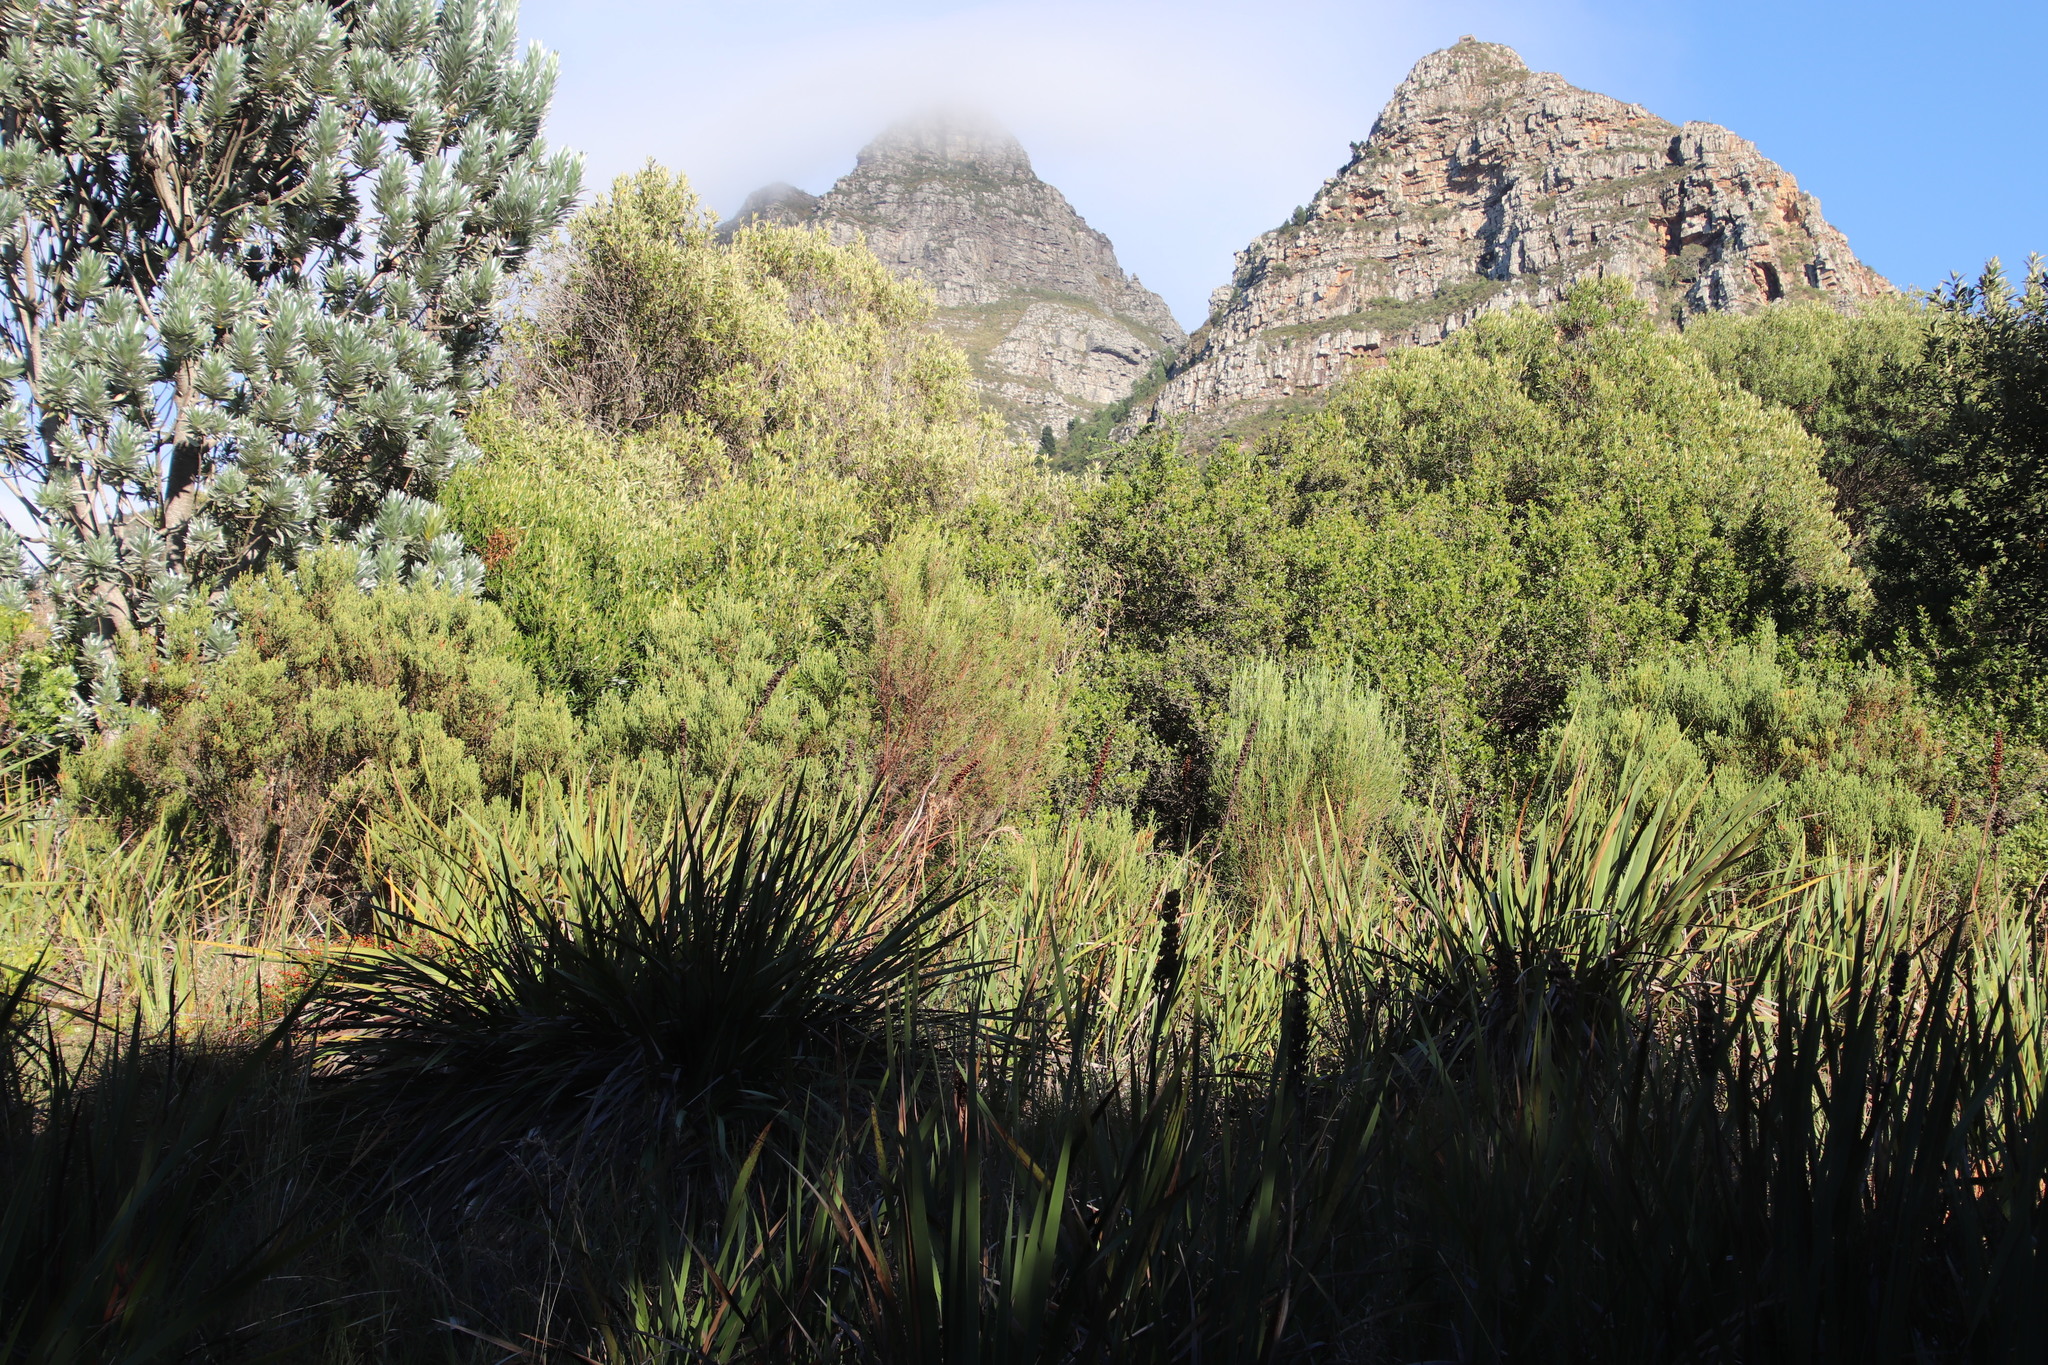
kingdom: Plantae
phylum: Tracheophyta
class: Magnoliopsida
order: Malvales
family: Thymelaeaceae
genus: Passerina
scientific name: Passerina corymbosa
